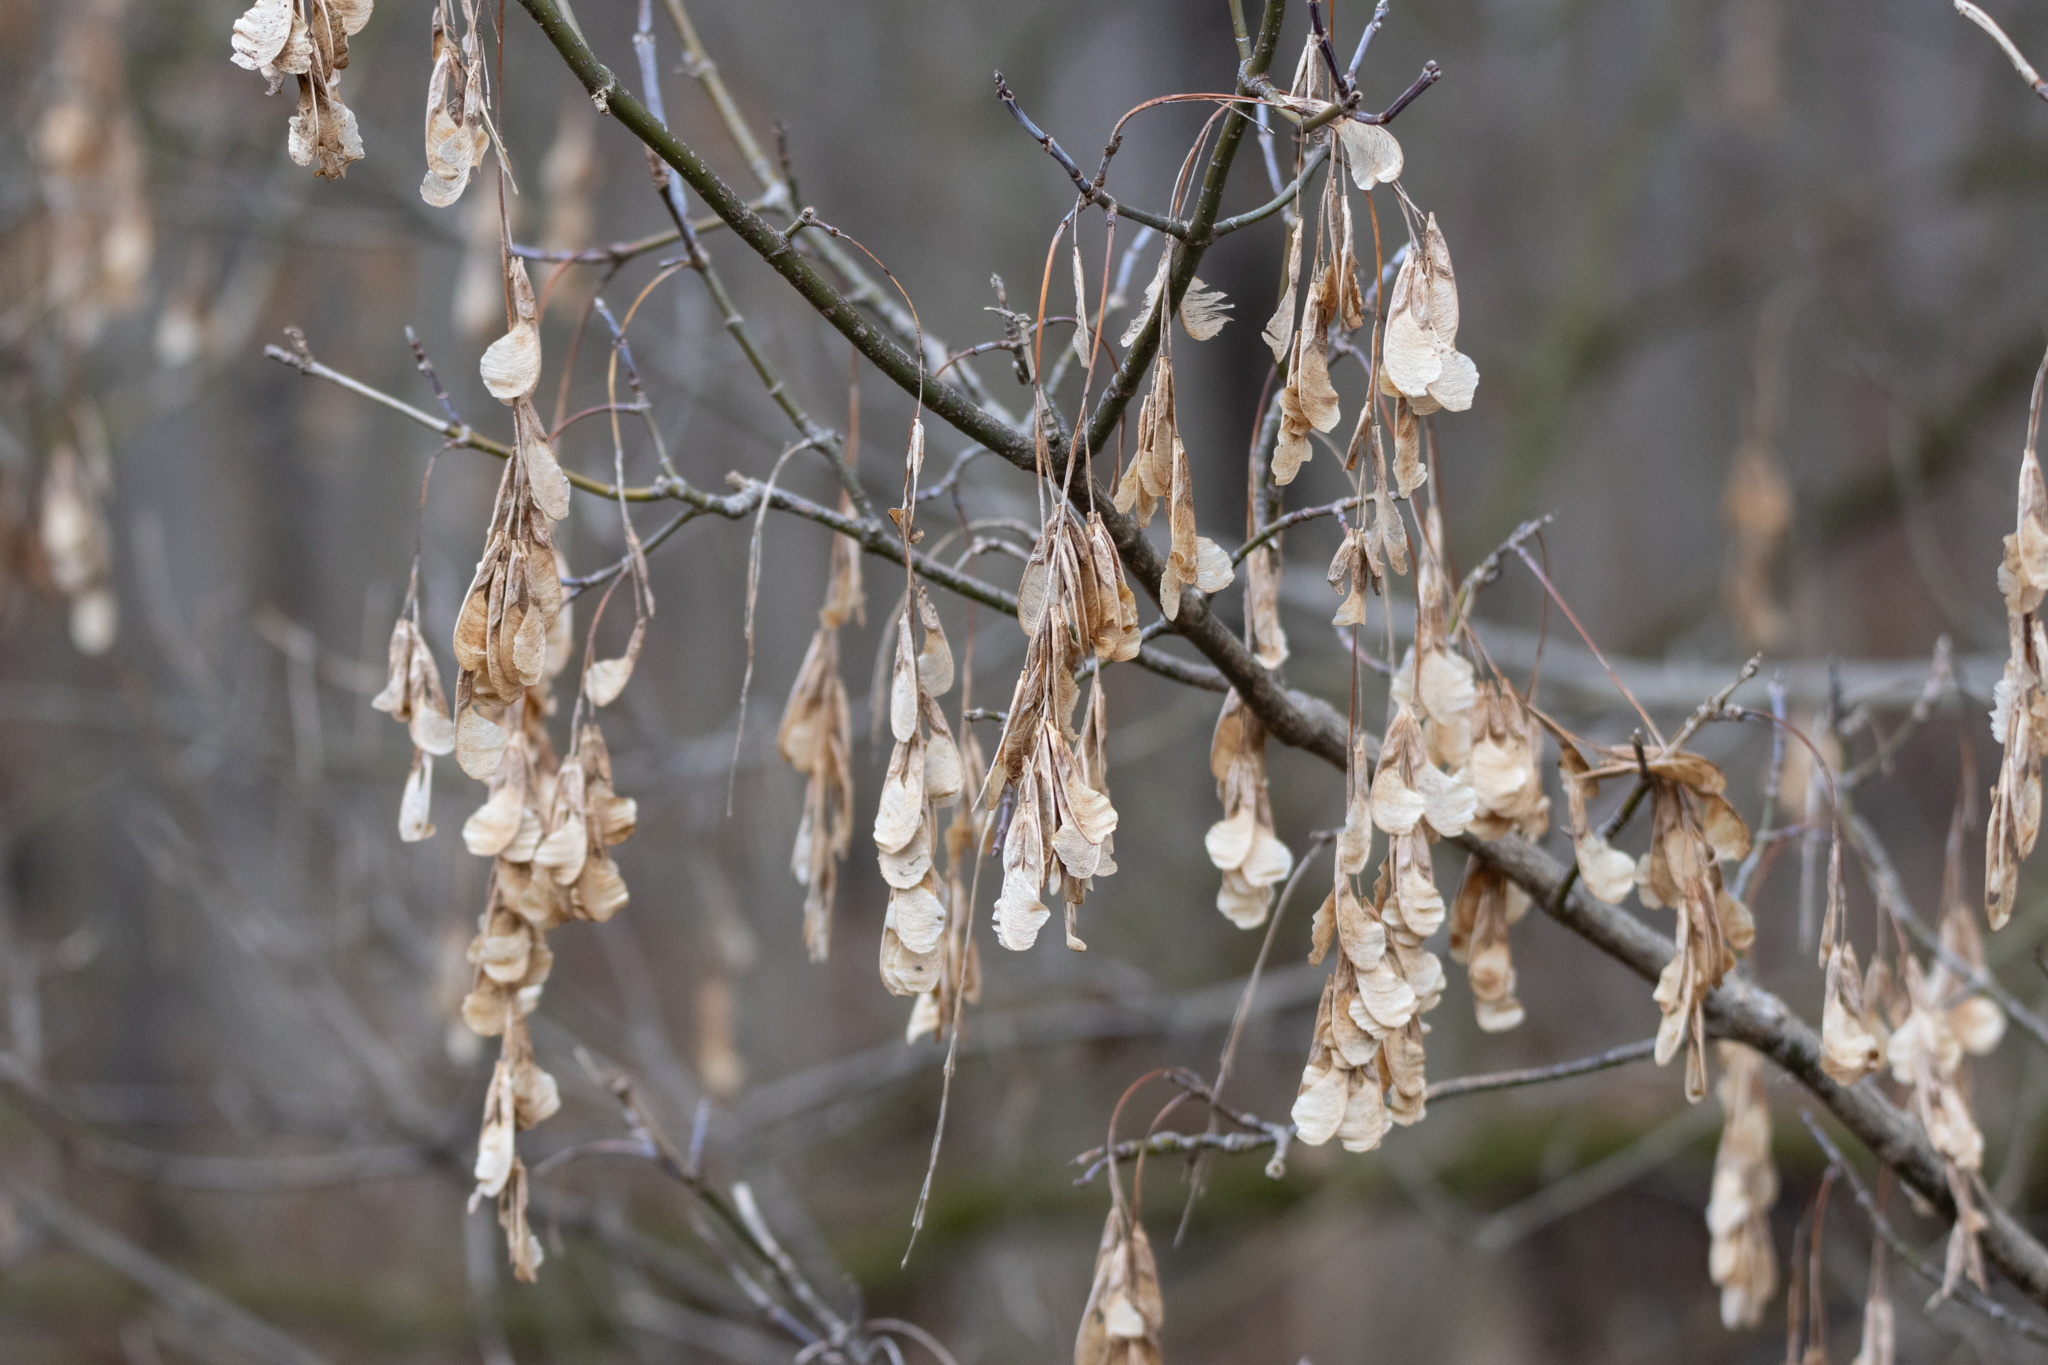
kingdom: Plantae
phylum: Tracheophyta
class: Magnoliopsida
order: Sapindales
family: Sapindaceae
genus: Acer
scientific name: Acer negundo
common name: Ashleaf maple
